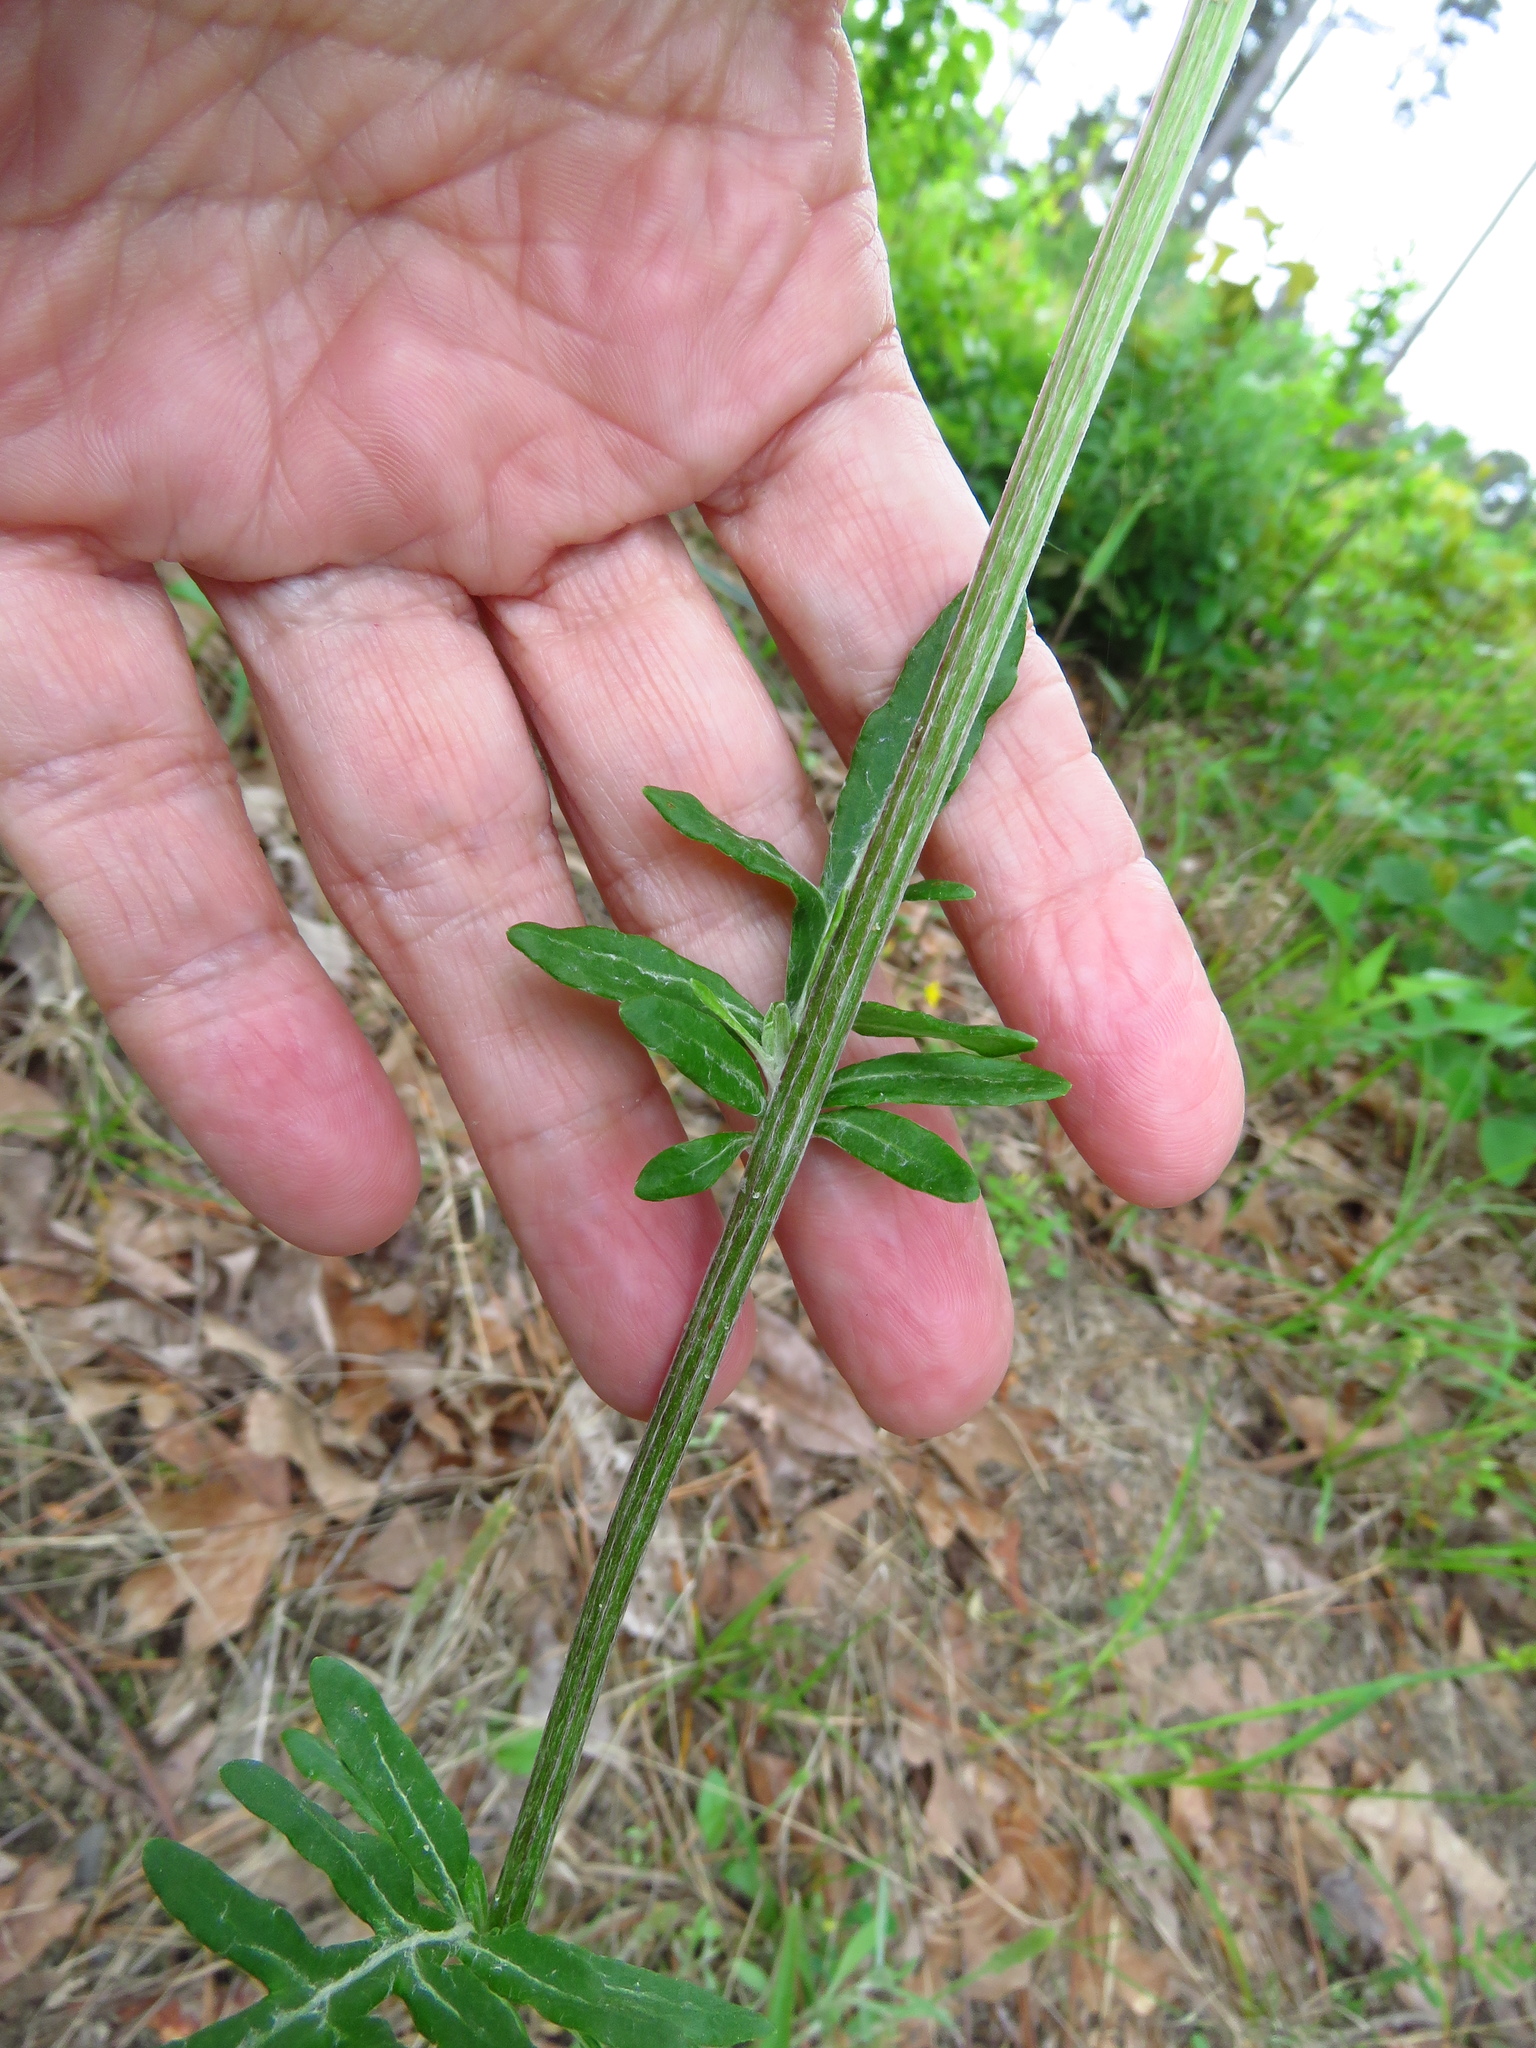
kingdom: Plantae
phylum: Tracheophyta
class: Magnoliopsida
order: Asterales
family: Asteraceae
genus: Hymenopappus
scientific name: Hymenopappus artemisiifolius
